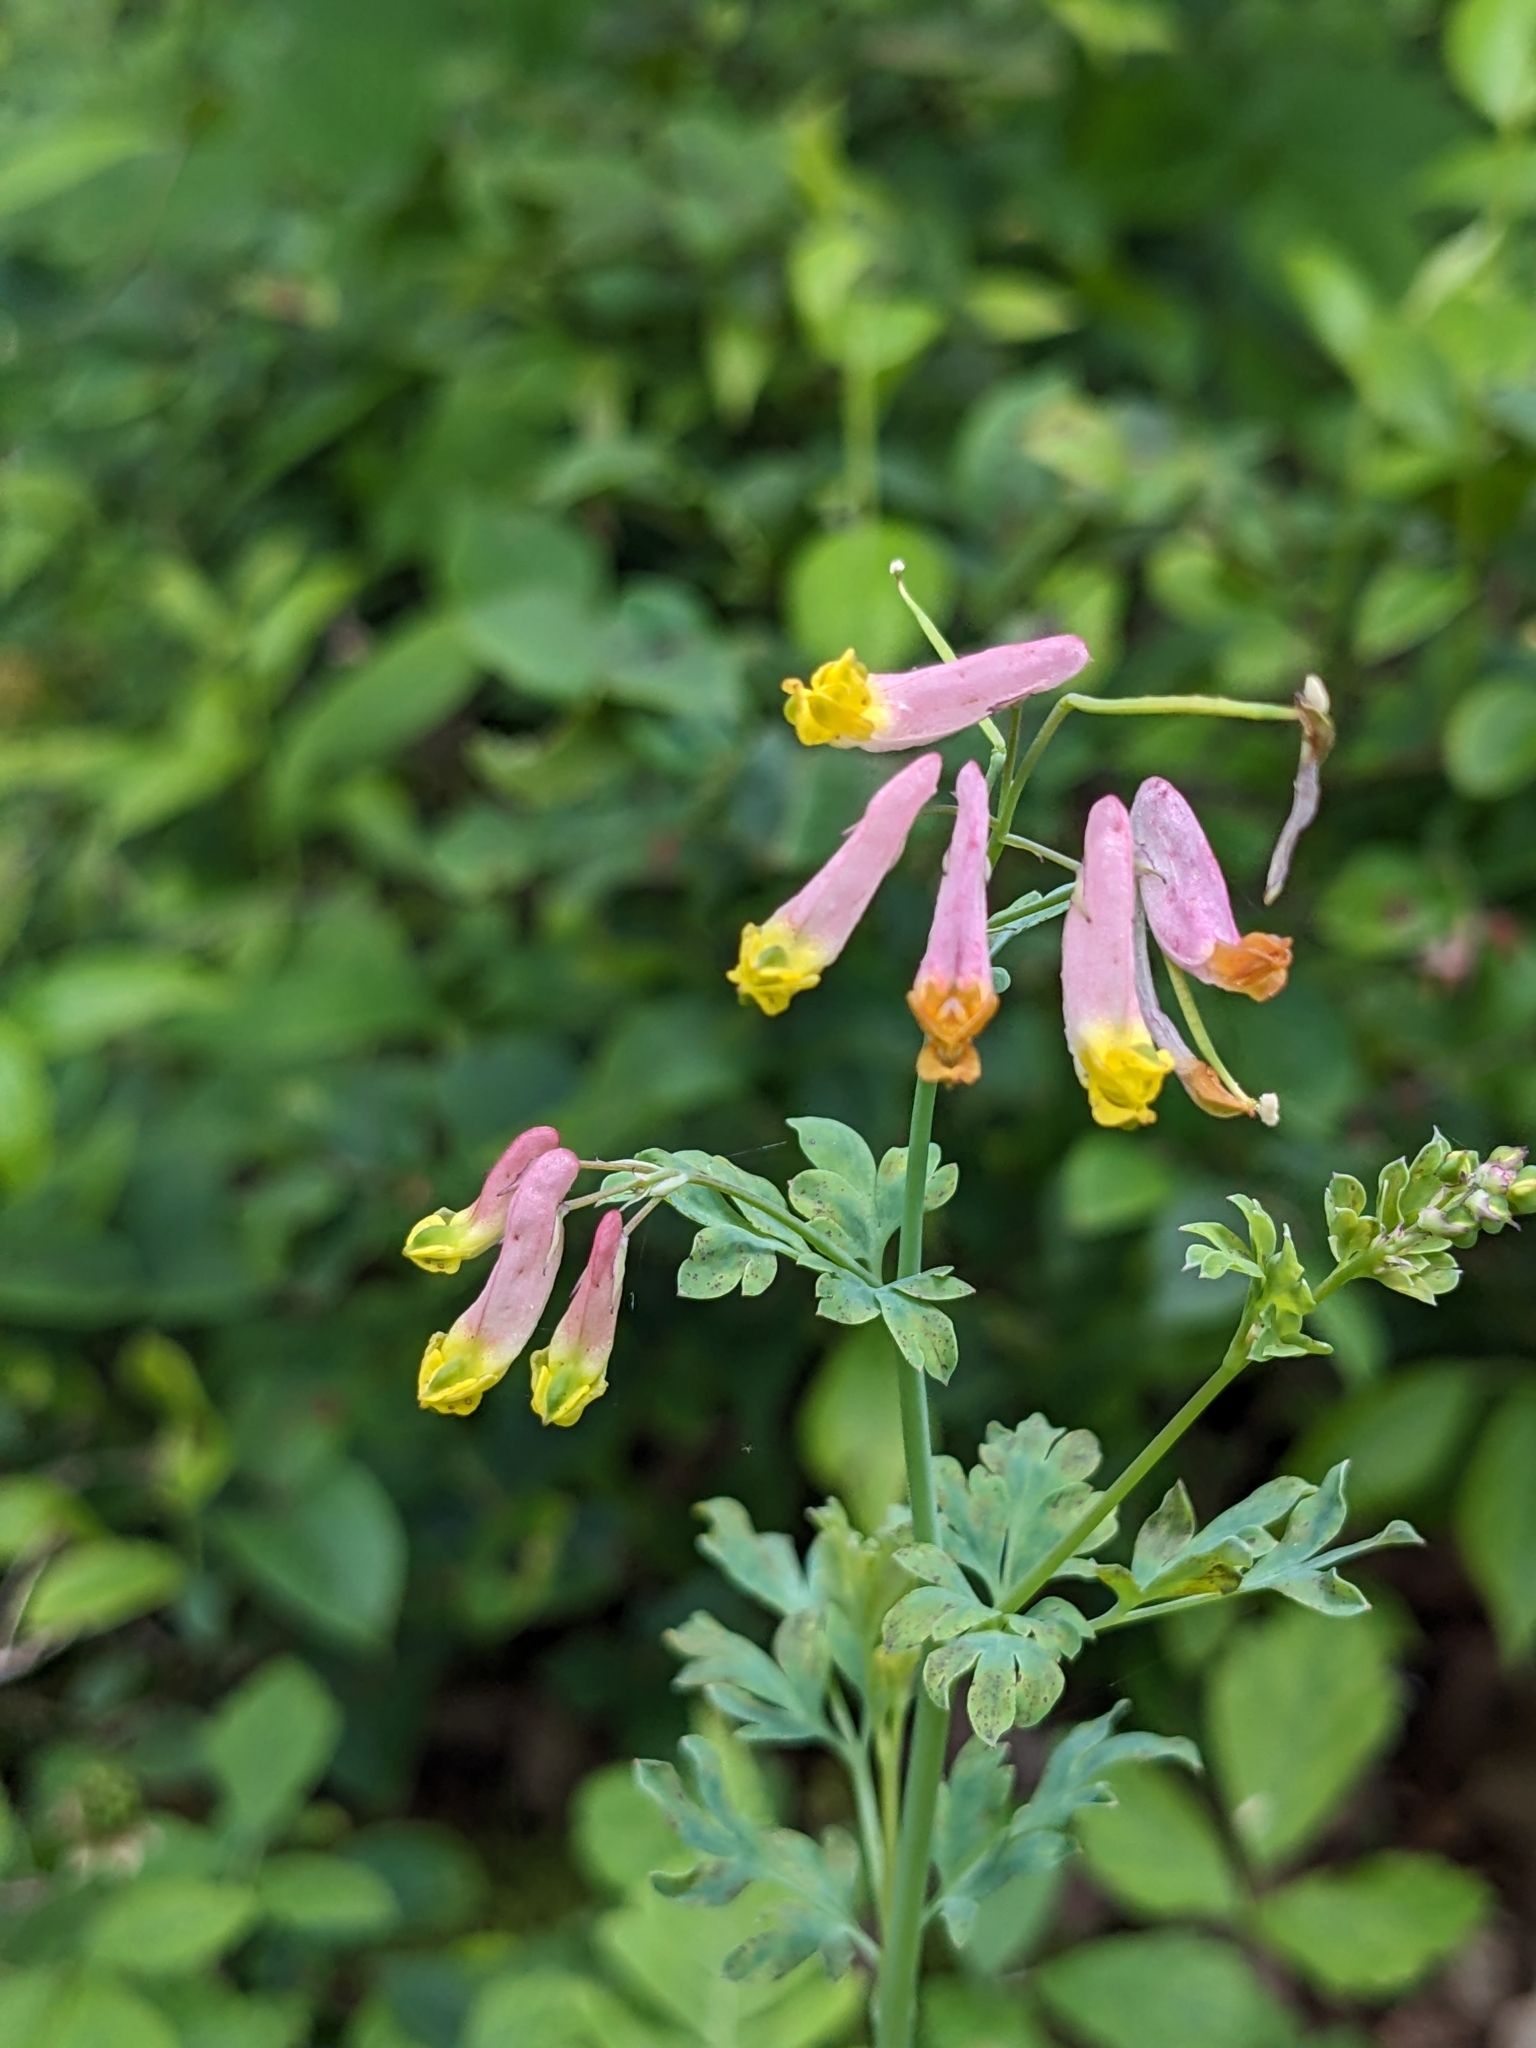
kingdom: Plantae
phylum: Tracheophyta
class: Magnoliopsida
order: Ranunculales
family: Papaveraceae
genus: Capnoides
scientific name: Capnoides sempervirens
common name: Rock harlequin
